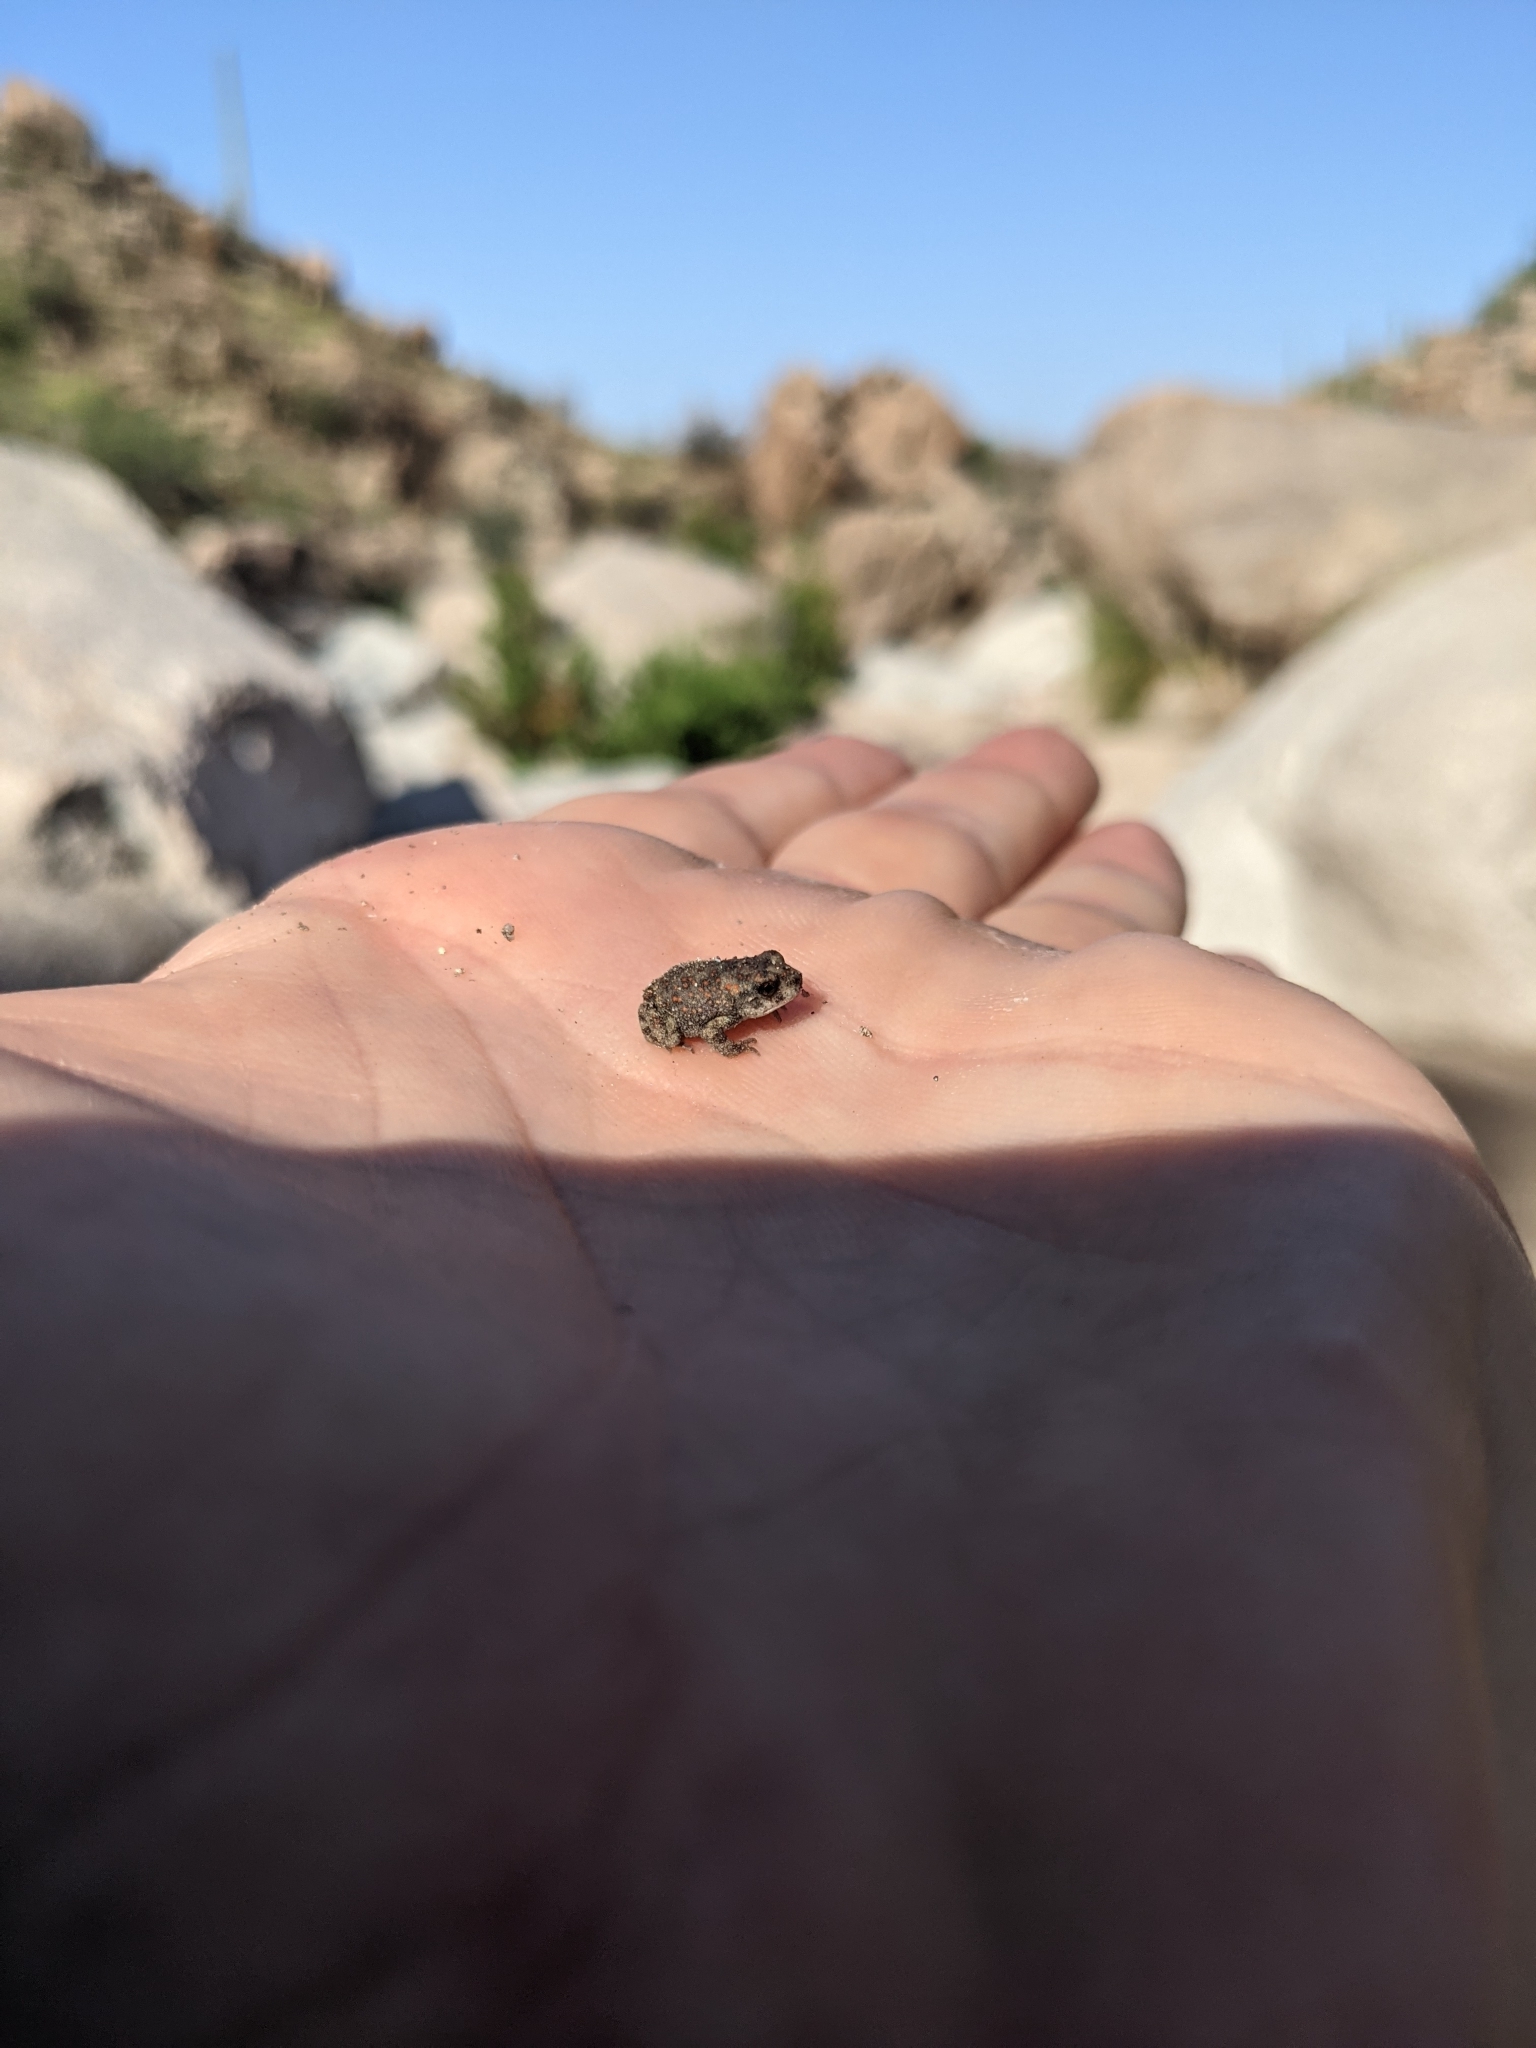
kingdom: Animalia
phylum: Chordata
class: Amphibia
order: Anura
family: Bufonidae
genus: Anaxyrus
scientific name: Anaxyrus punctatus
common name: Red-spotted toad
